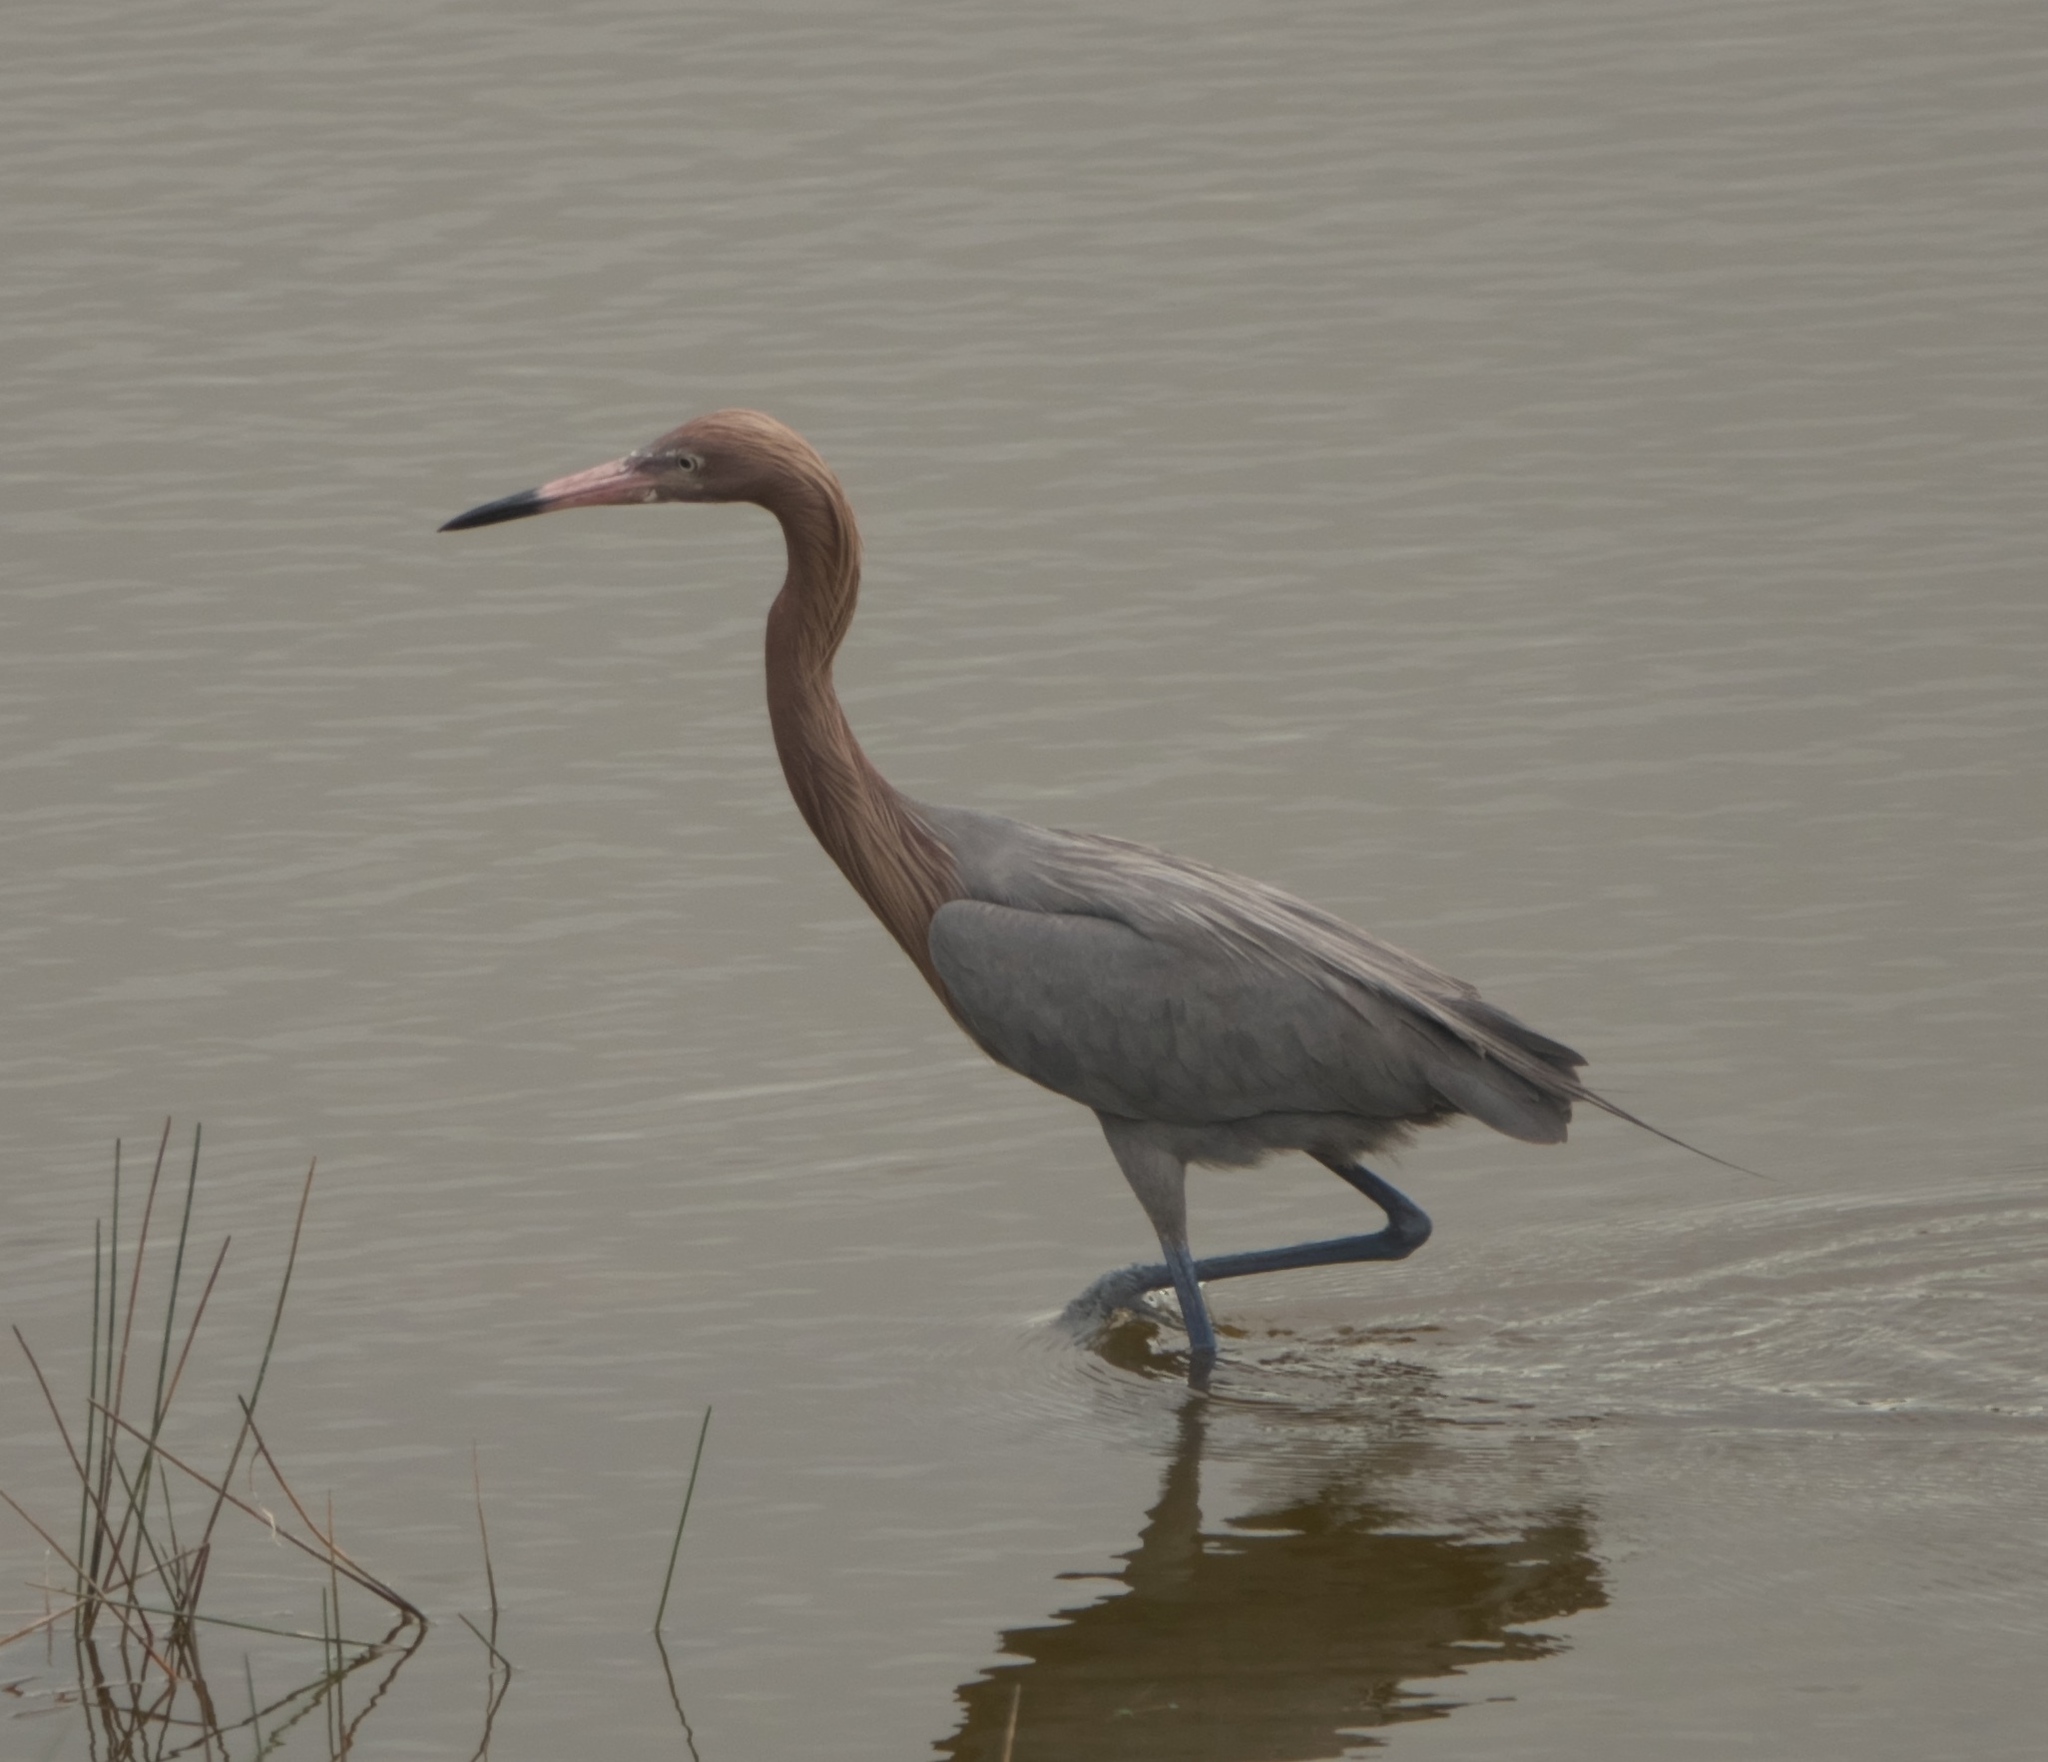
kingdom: Animalia
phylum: Chordata
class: Aves
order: Pelecaniformes
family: Ardeidae
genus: Egretta
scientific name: Egretta rufescens
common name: Reddish egret
